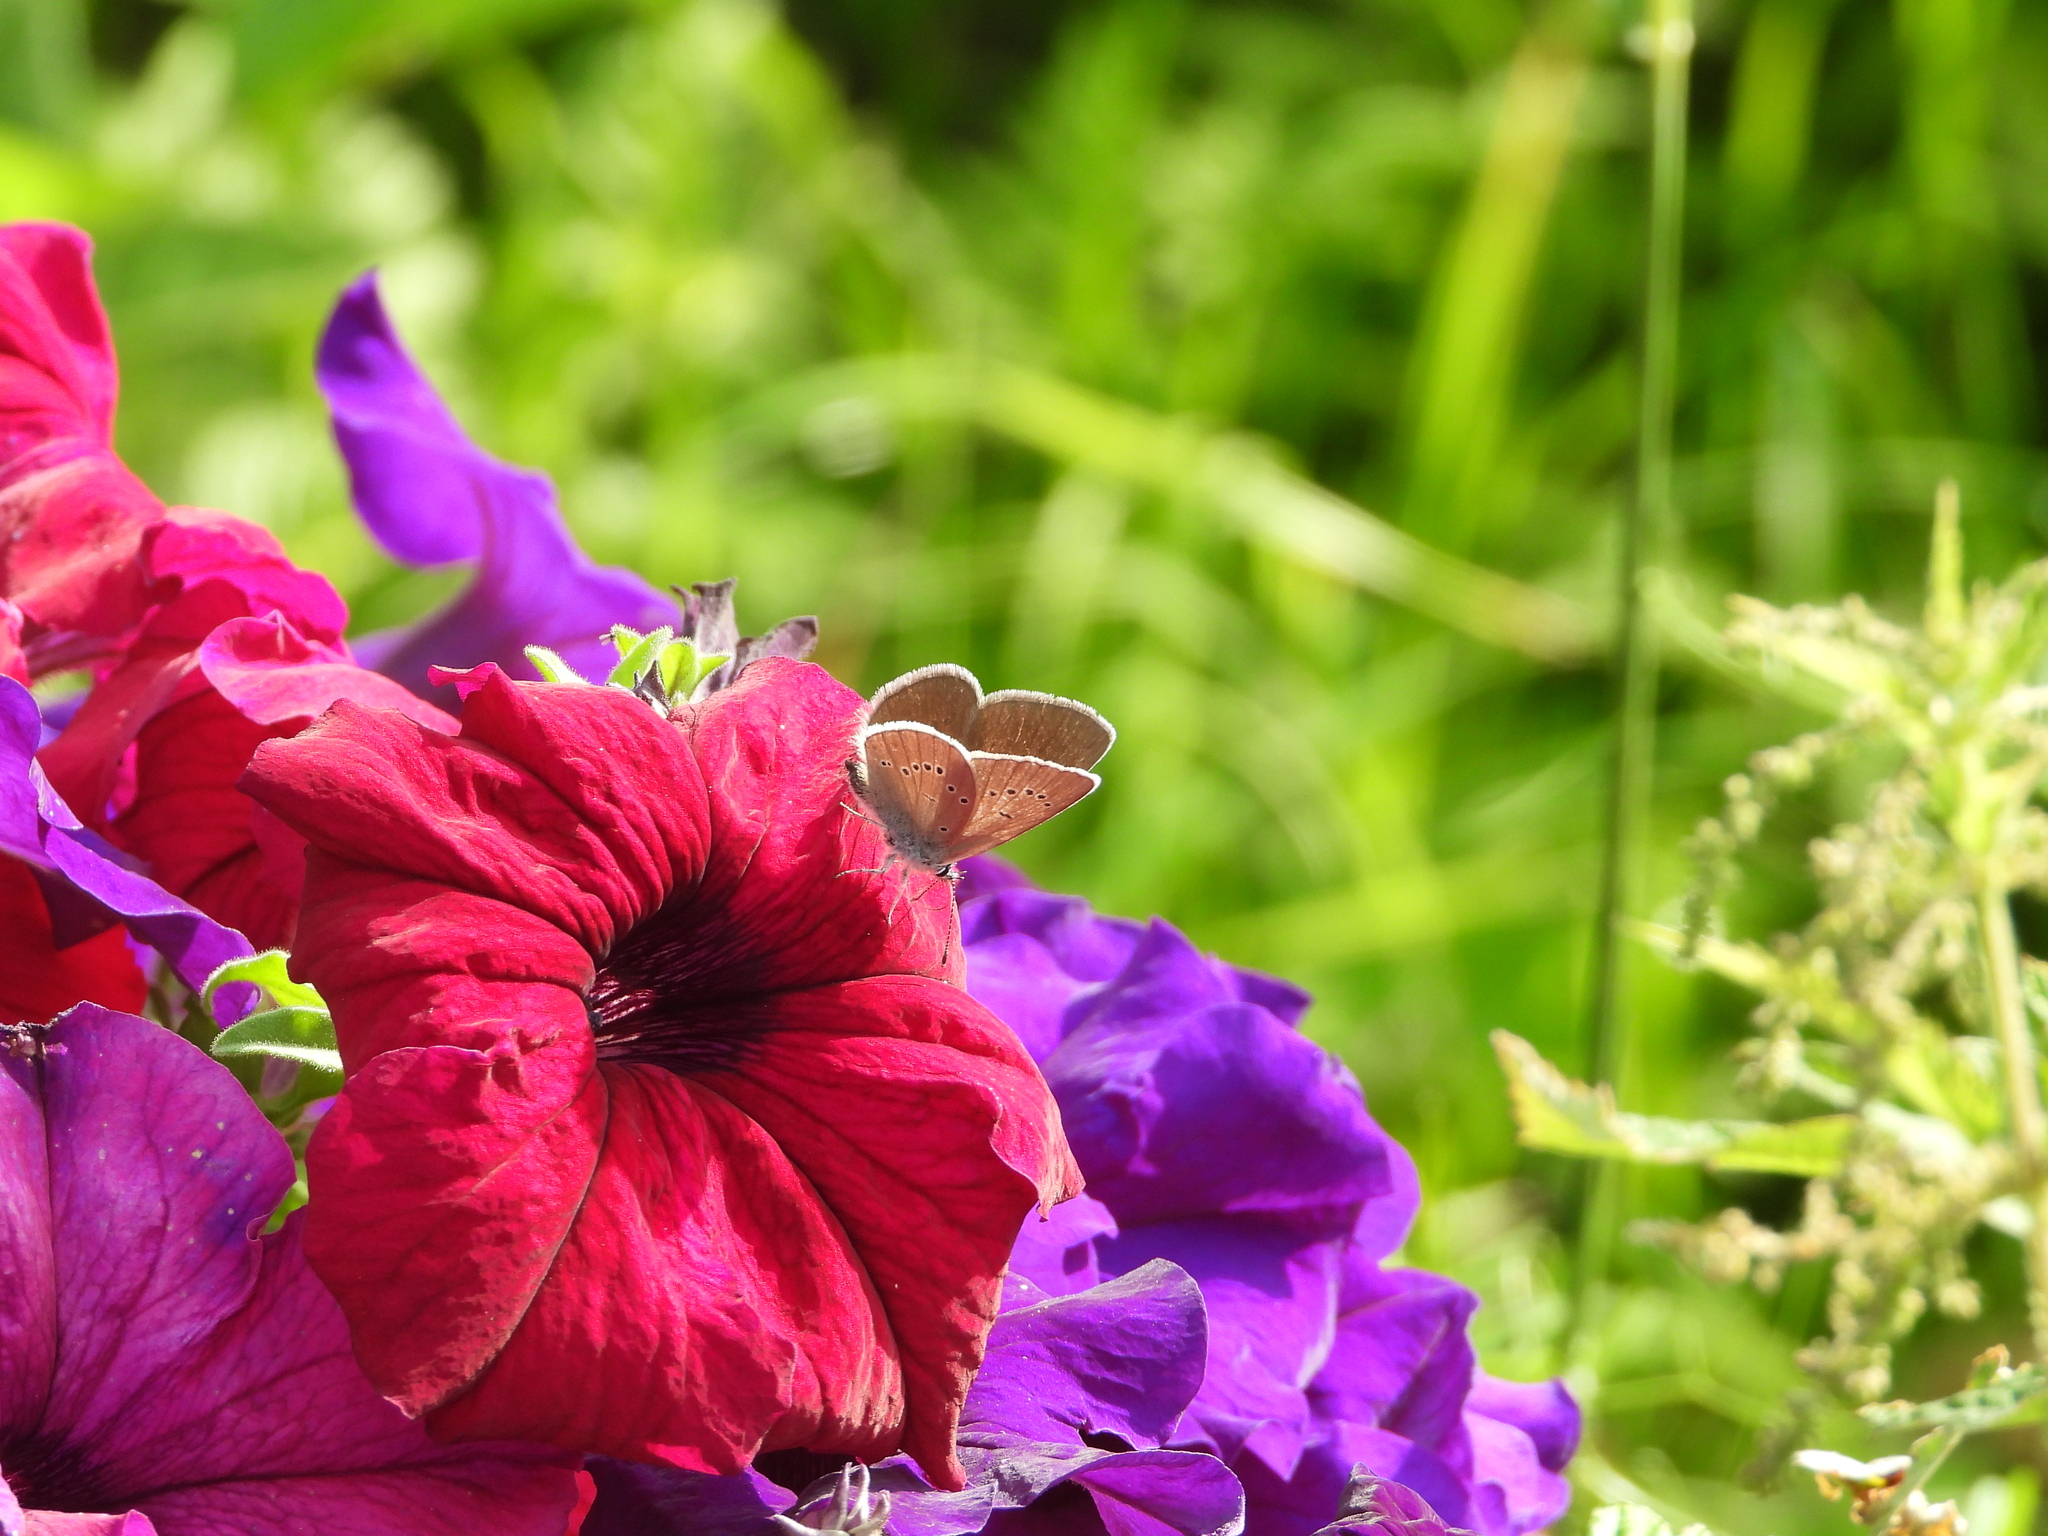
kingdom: Animalia
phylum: Arthropoda
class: Insecta
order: Lepidoptera
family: Lycaenidae
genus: Cyaniris
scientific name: Cyaniris semiargus
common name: Mazarine blue
